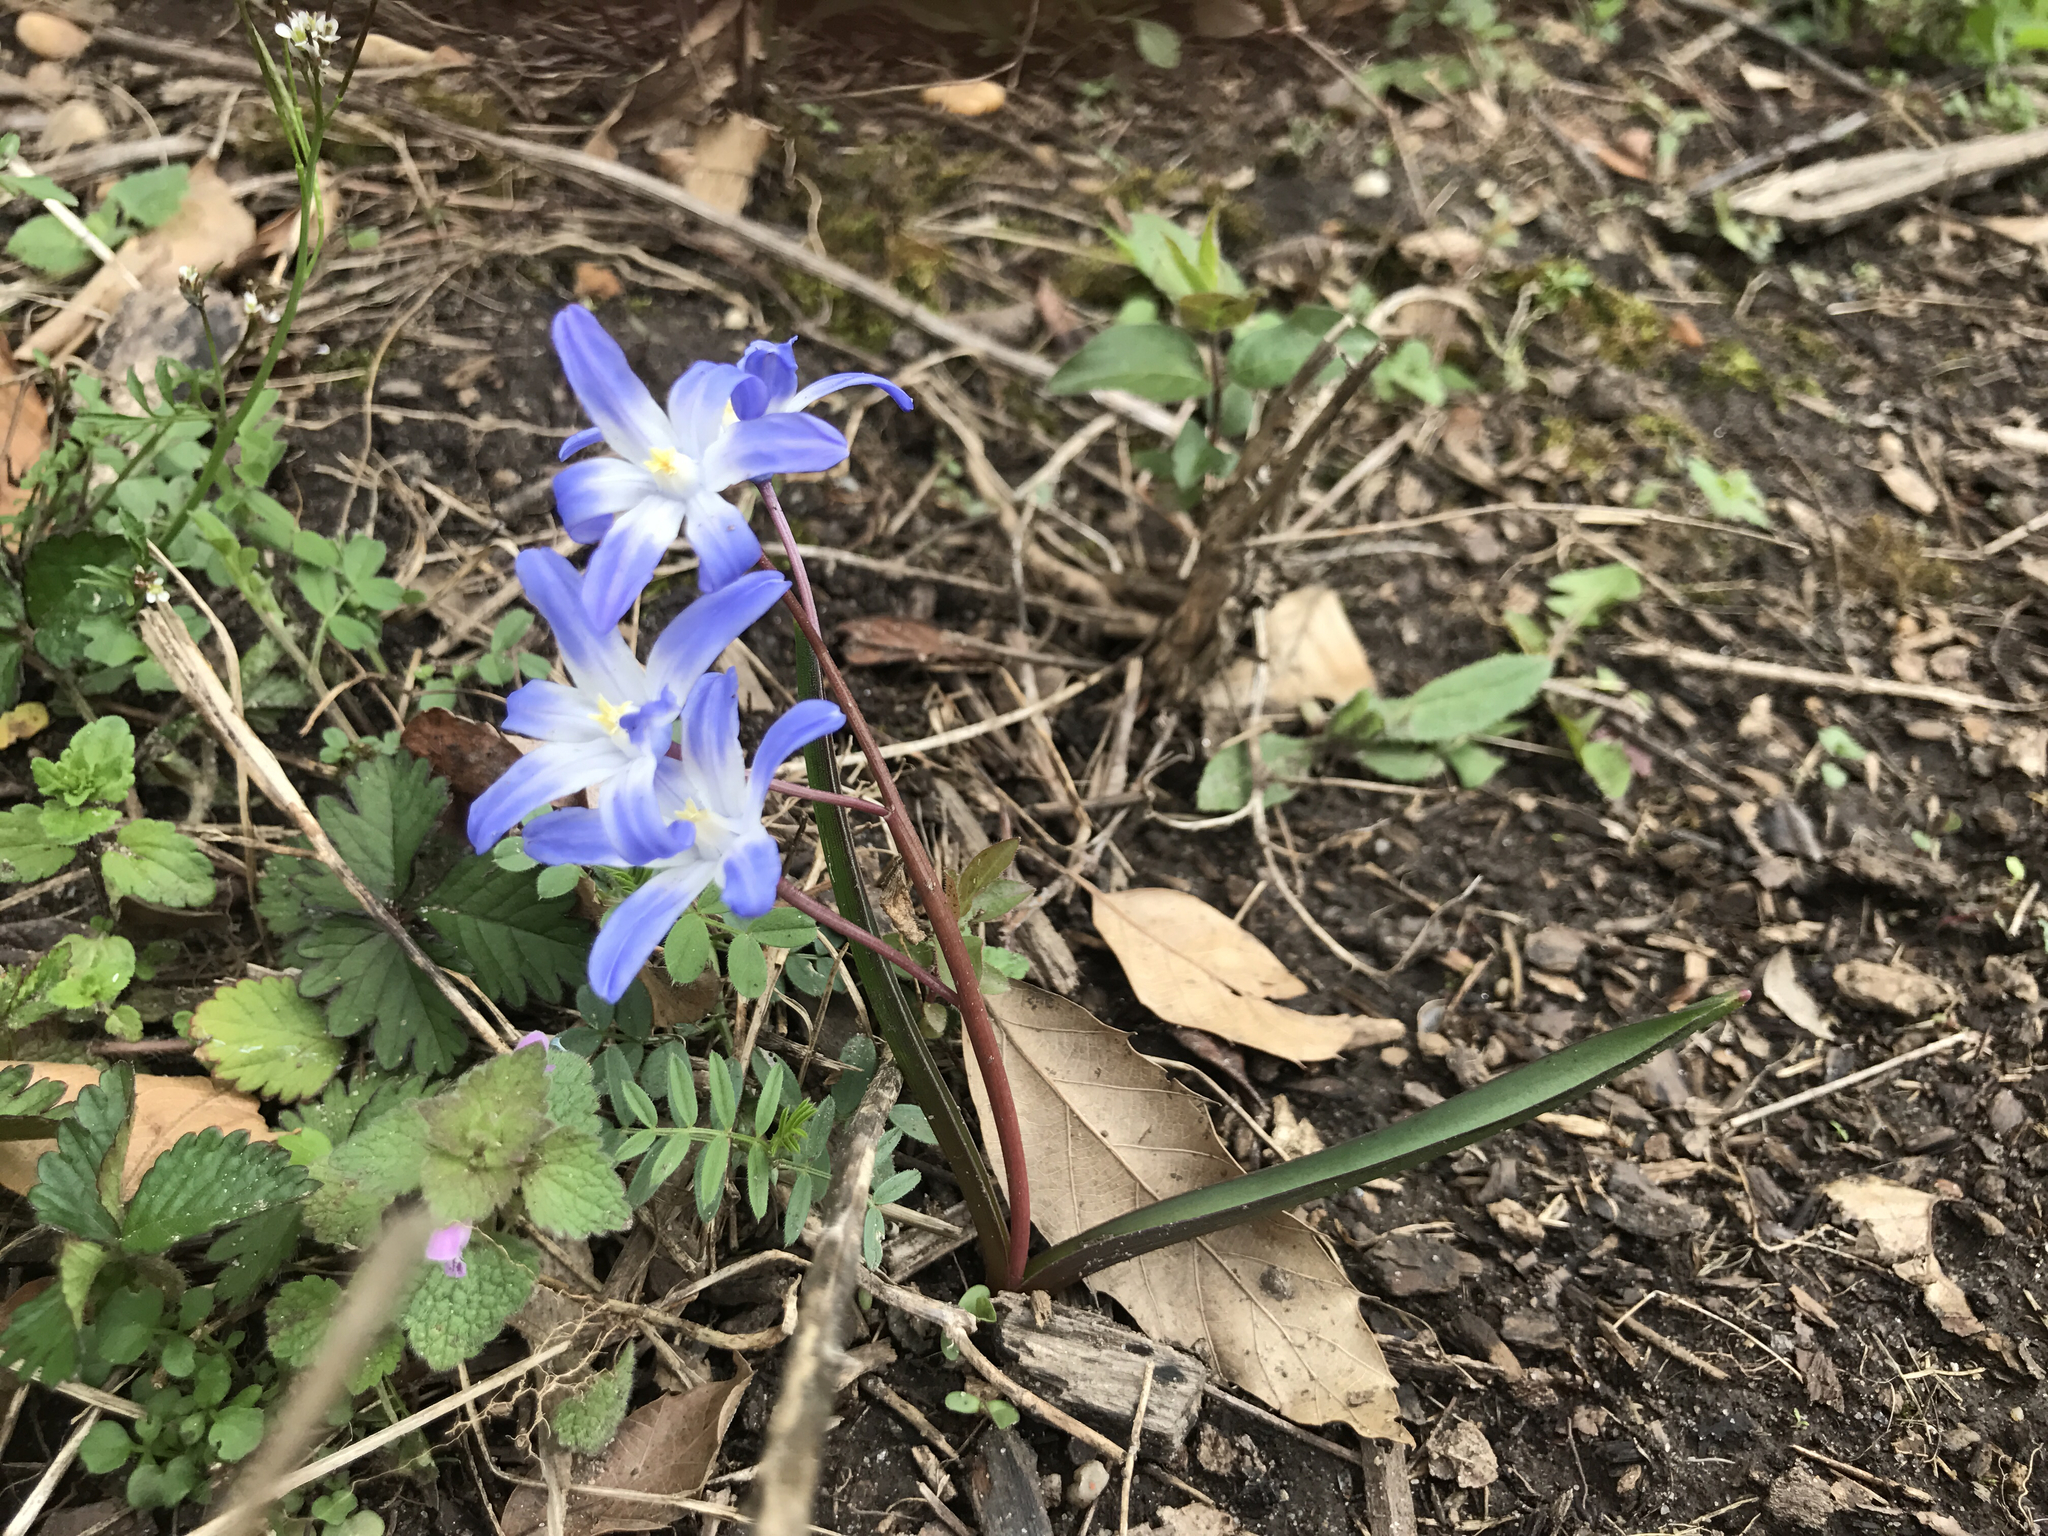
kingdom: Plantae
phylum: Tracheophyta
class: Liliopsida
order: Asparagales
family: Asparagaceae
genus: Scilla
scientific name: Scilla forbesii
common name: Glory-of-the-snow
